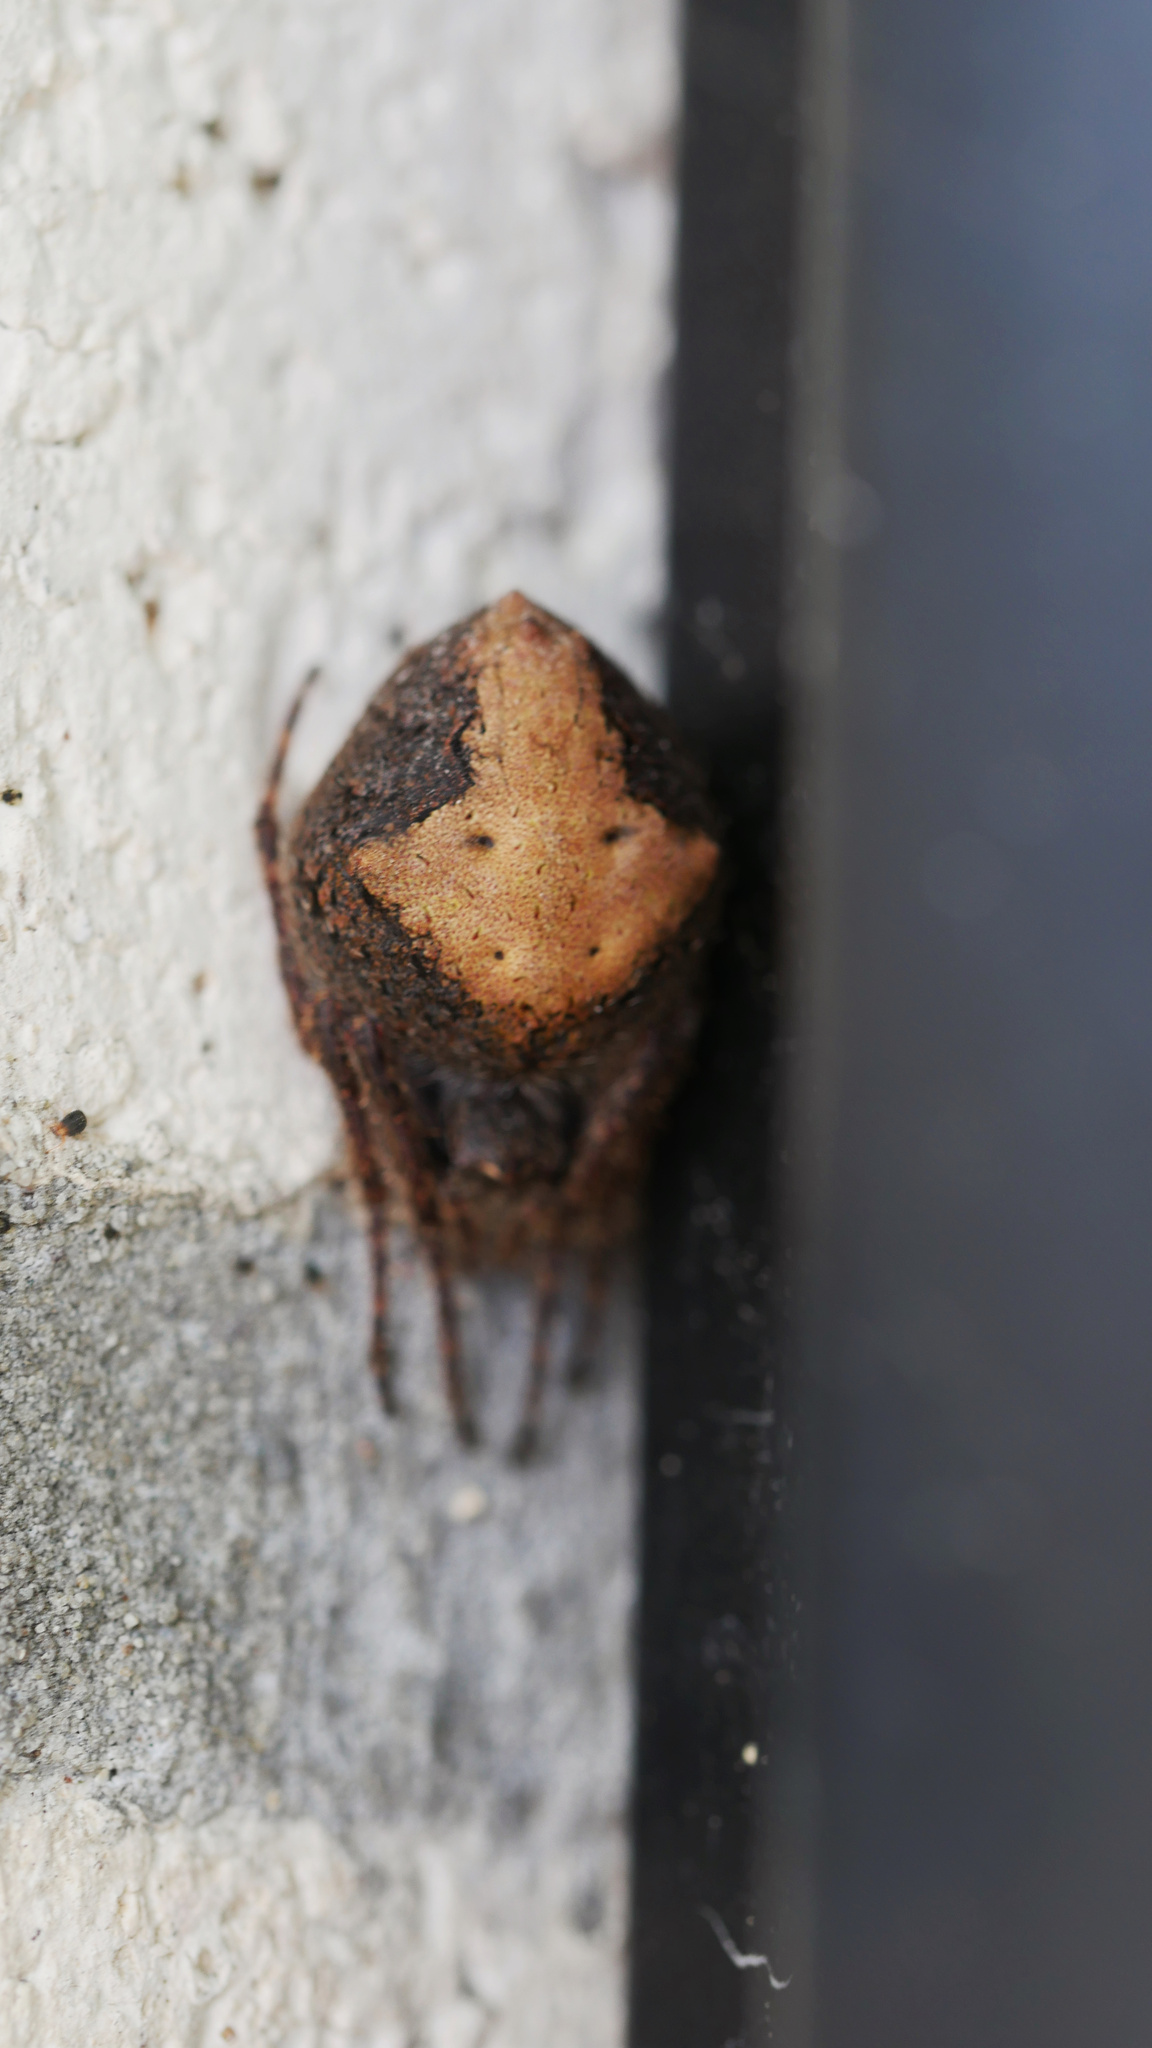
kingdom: Animalia
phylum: Arthropoda
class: Arachnida
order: Araneae
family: Araneidae
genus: Eriophora
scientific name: Eriophora pustulosa
